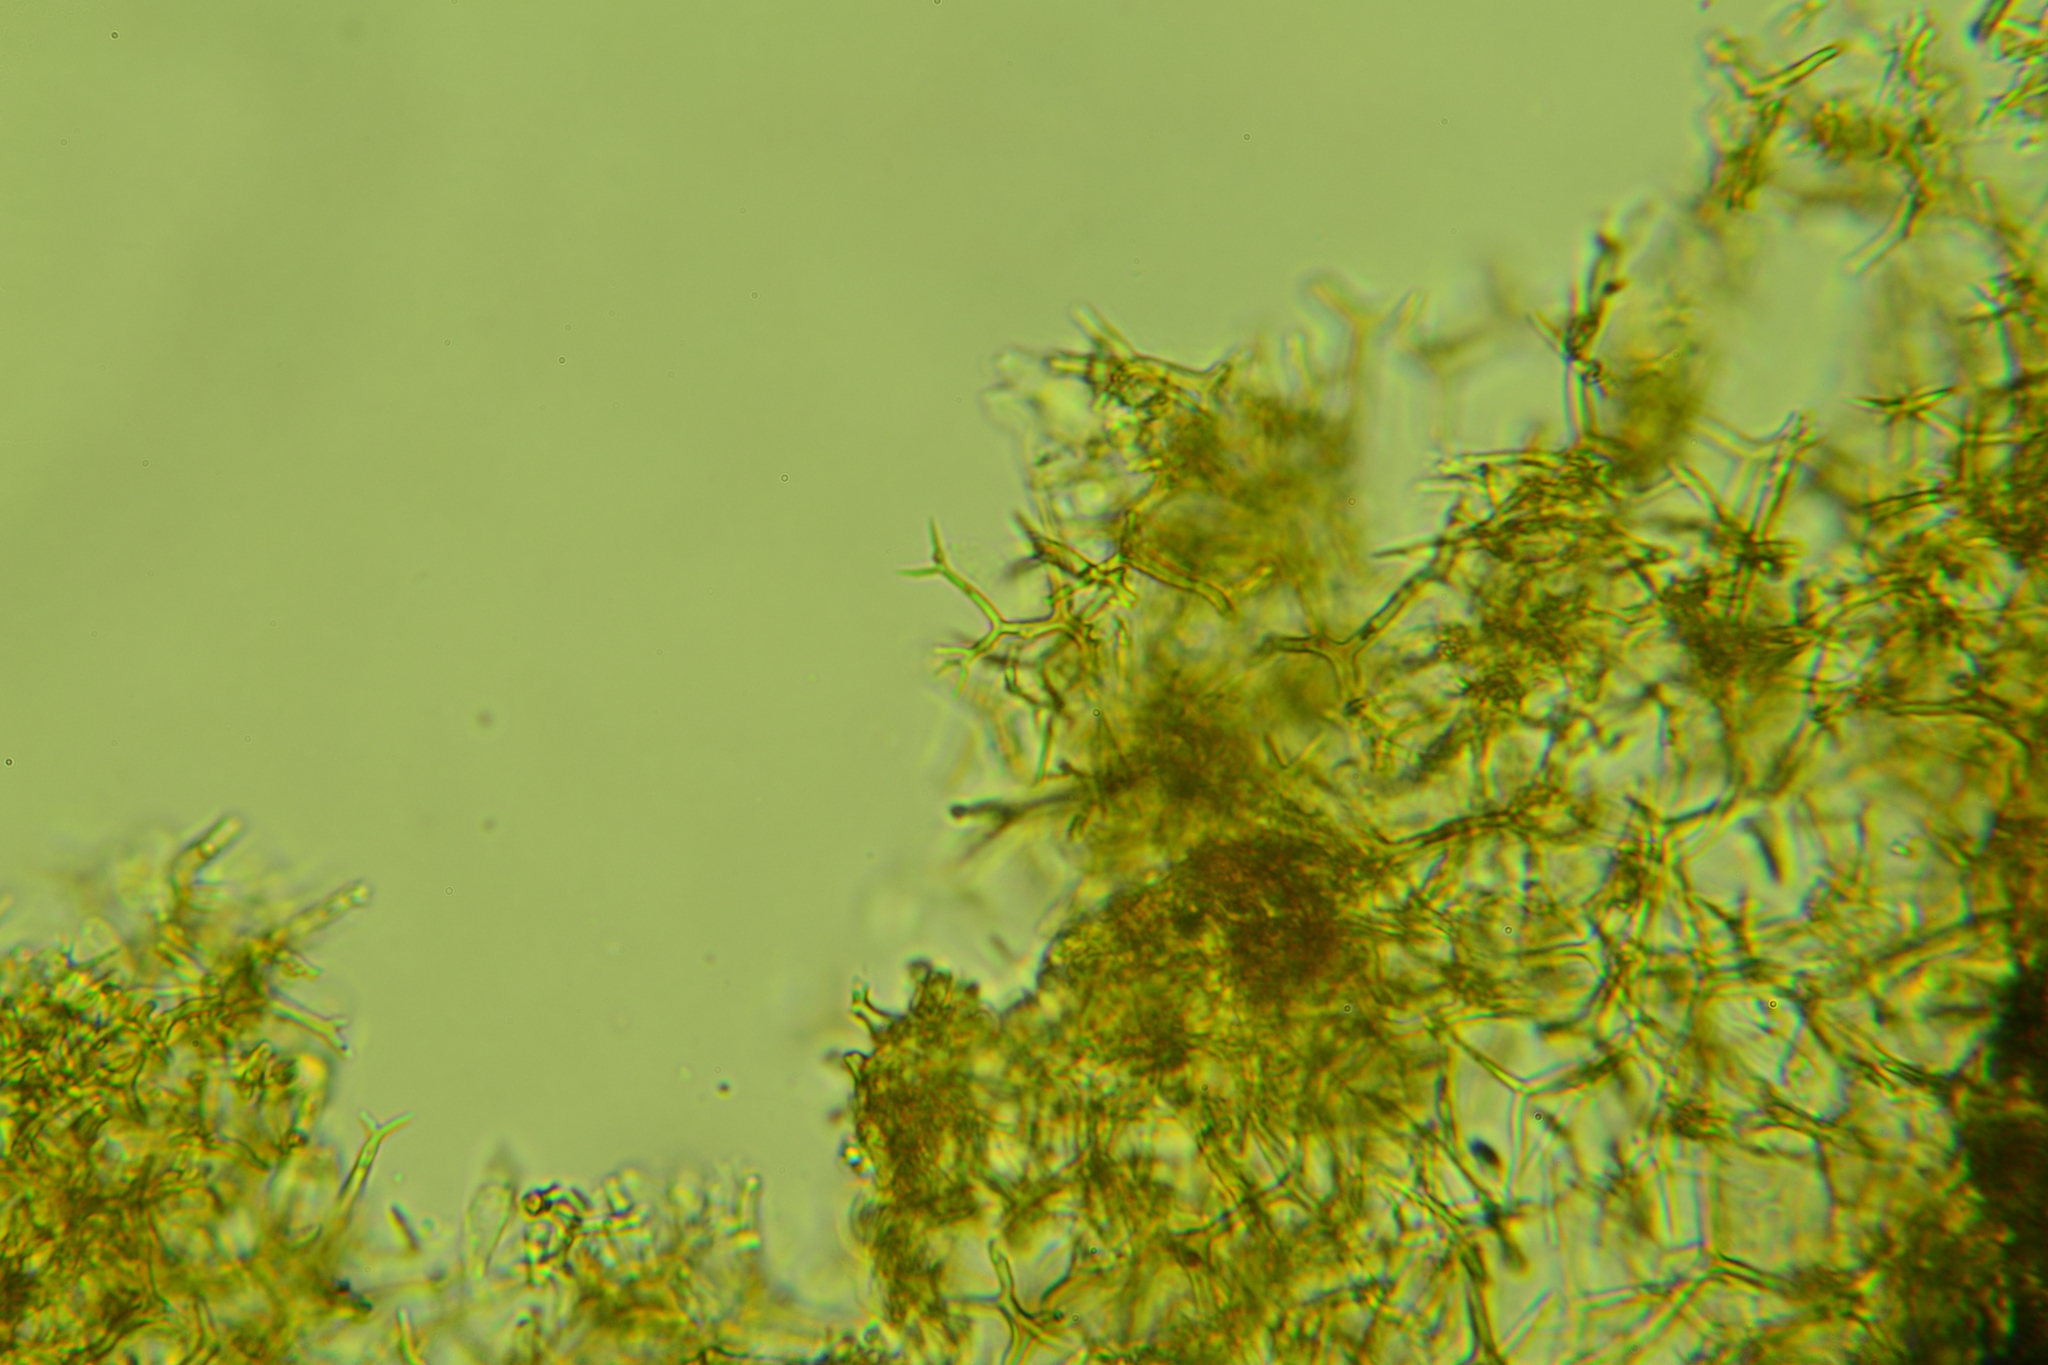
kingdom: Fungi
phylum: Basidiomycota
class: Agaricomycetes
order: Russulales
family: Peniophoraceae
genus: Vararia
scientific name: Vararia investiens
